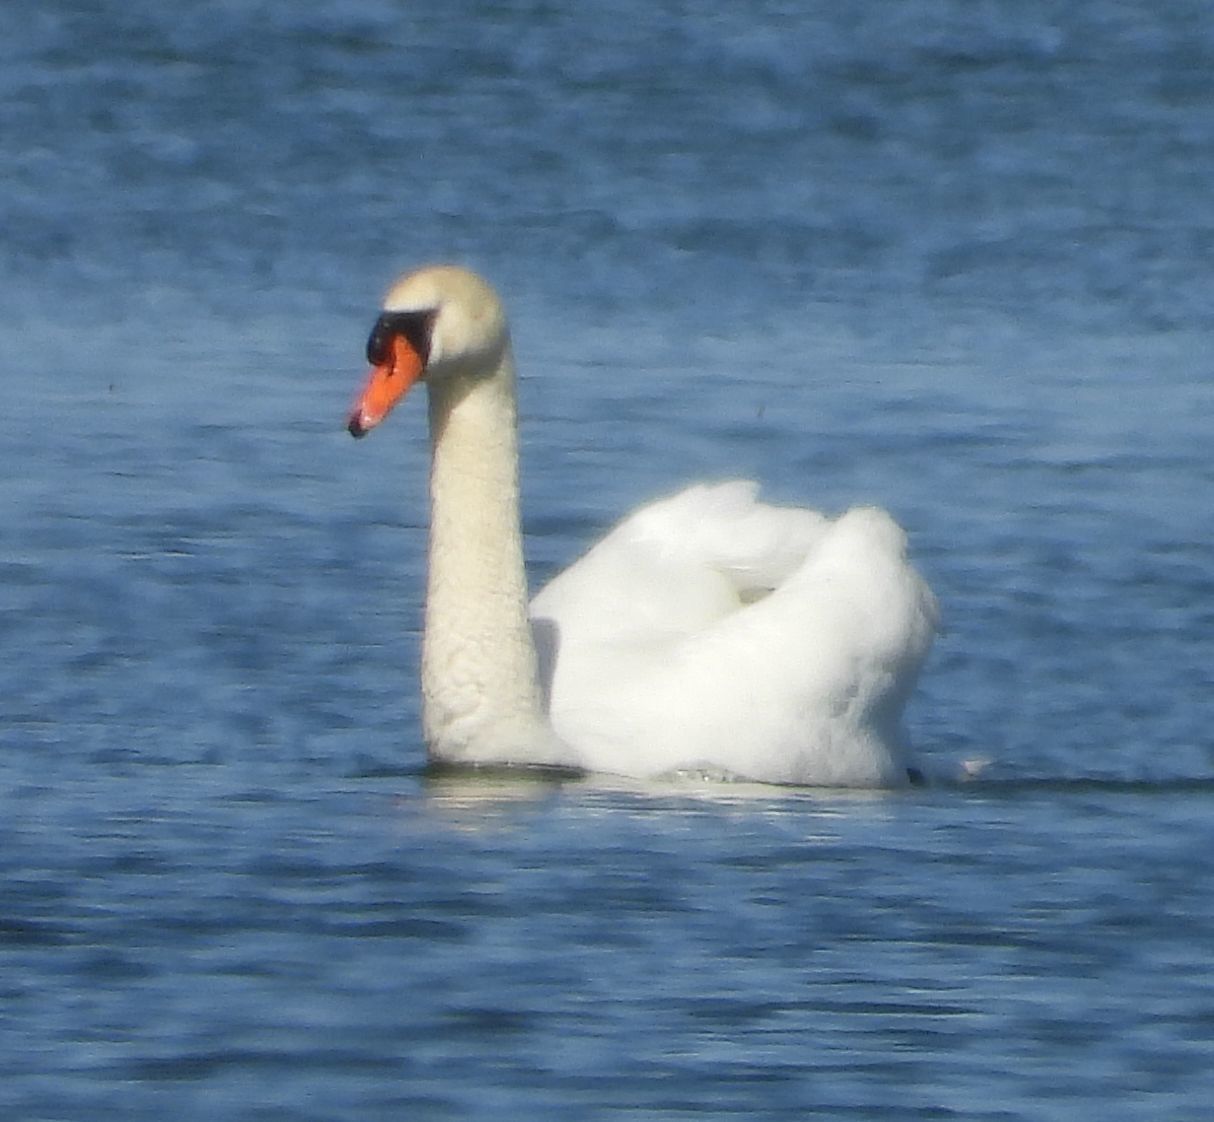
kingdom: Animalia
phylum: Chordata
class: Aves
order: Anseriformes
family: Anatidae
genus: Cygnus
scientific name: Cygnus olor
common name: Mute swan
